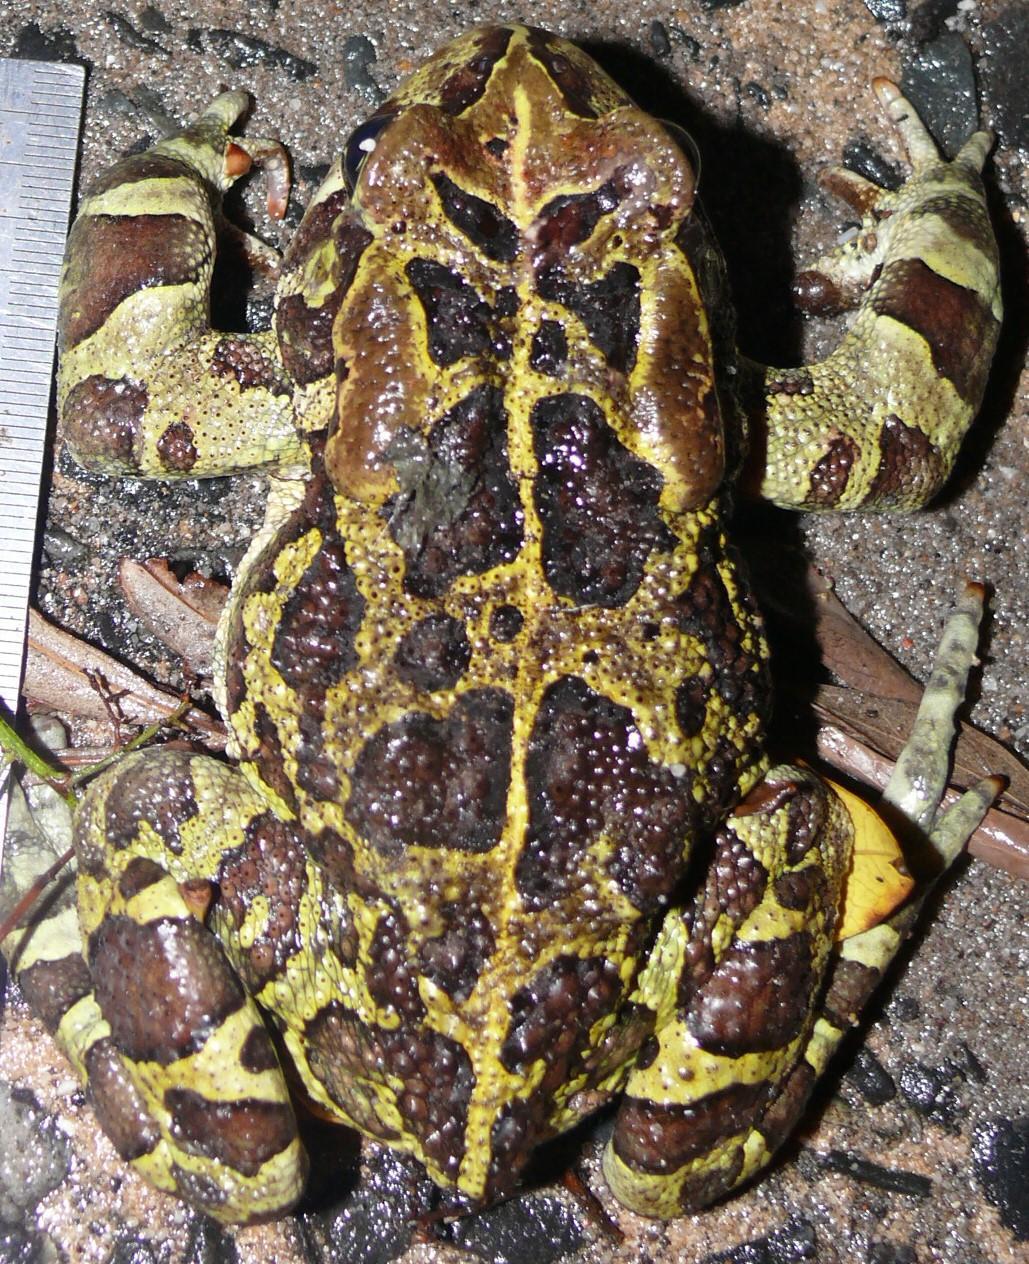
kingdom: Animalia
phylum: Chordata
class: Amphibia
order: Anura
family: Bufonidae
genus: Sclerophrys
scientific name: Sclerophrys pantherina
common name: Panther toad
